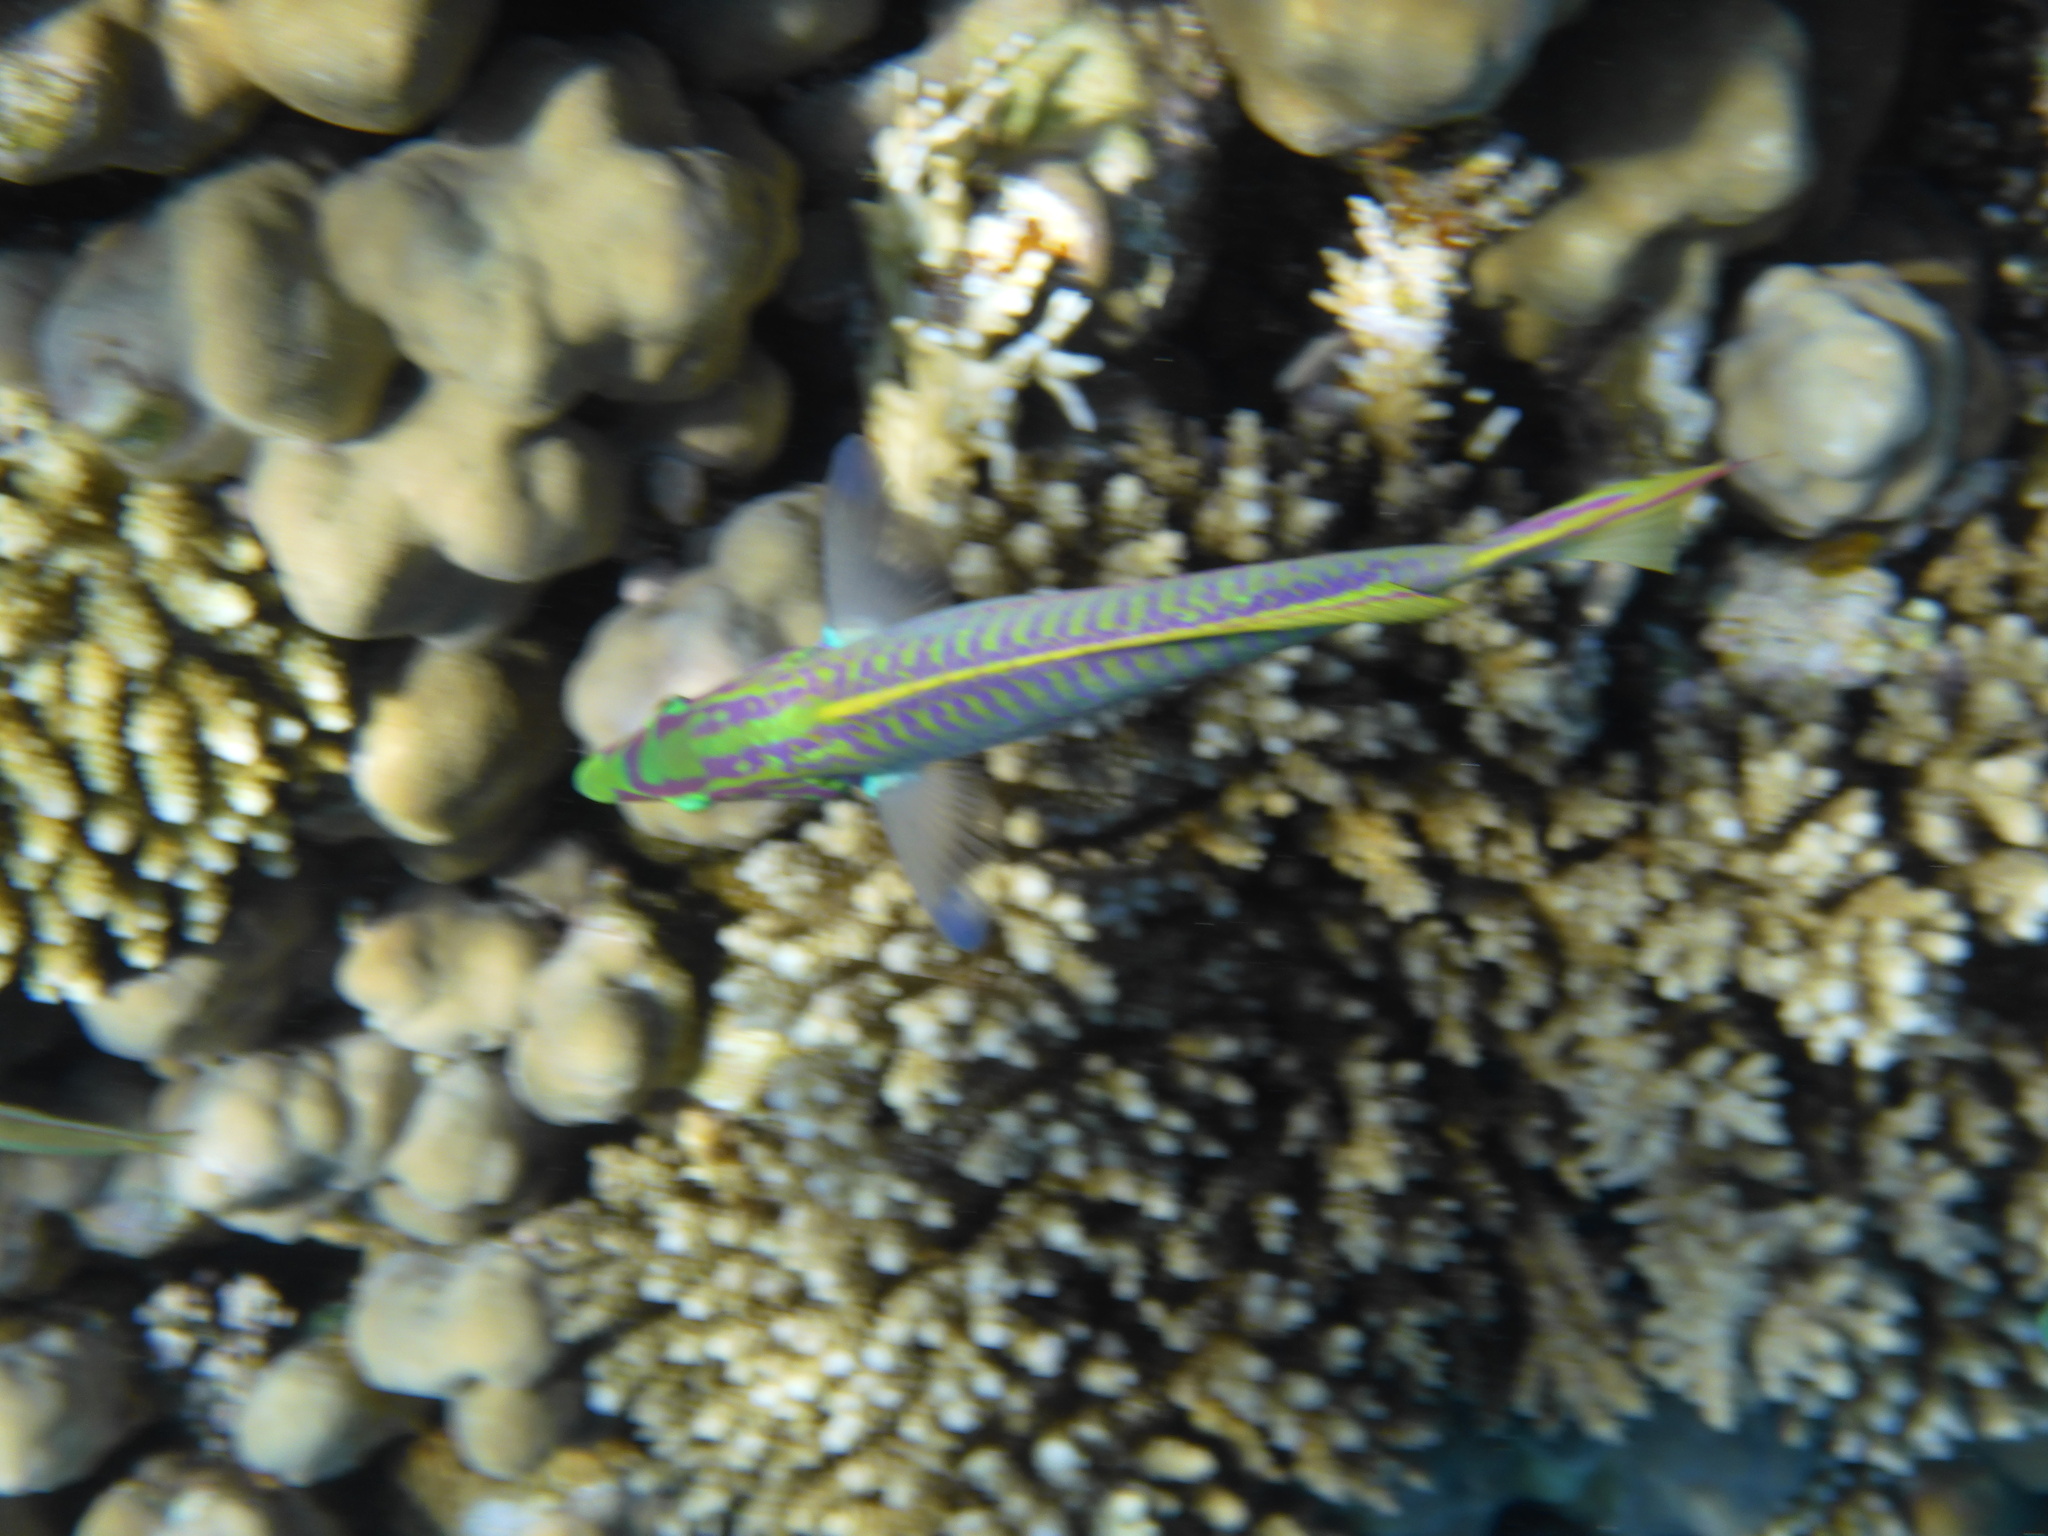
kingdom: Animalia
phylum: Chordata
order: Perciformes
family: Labridae
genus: Thalassoma
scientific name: Thalassoma rueppellii
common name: Klunzinger's wrasse
